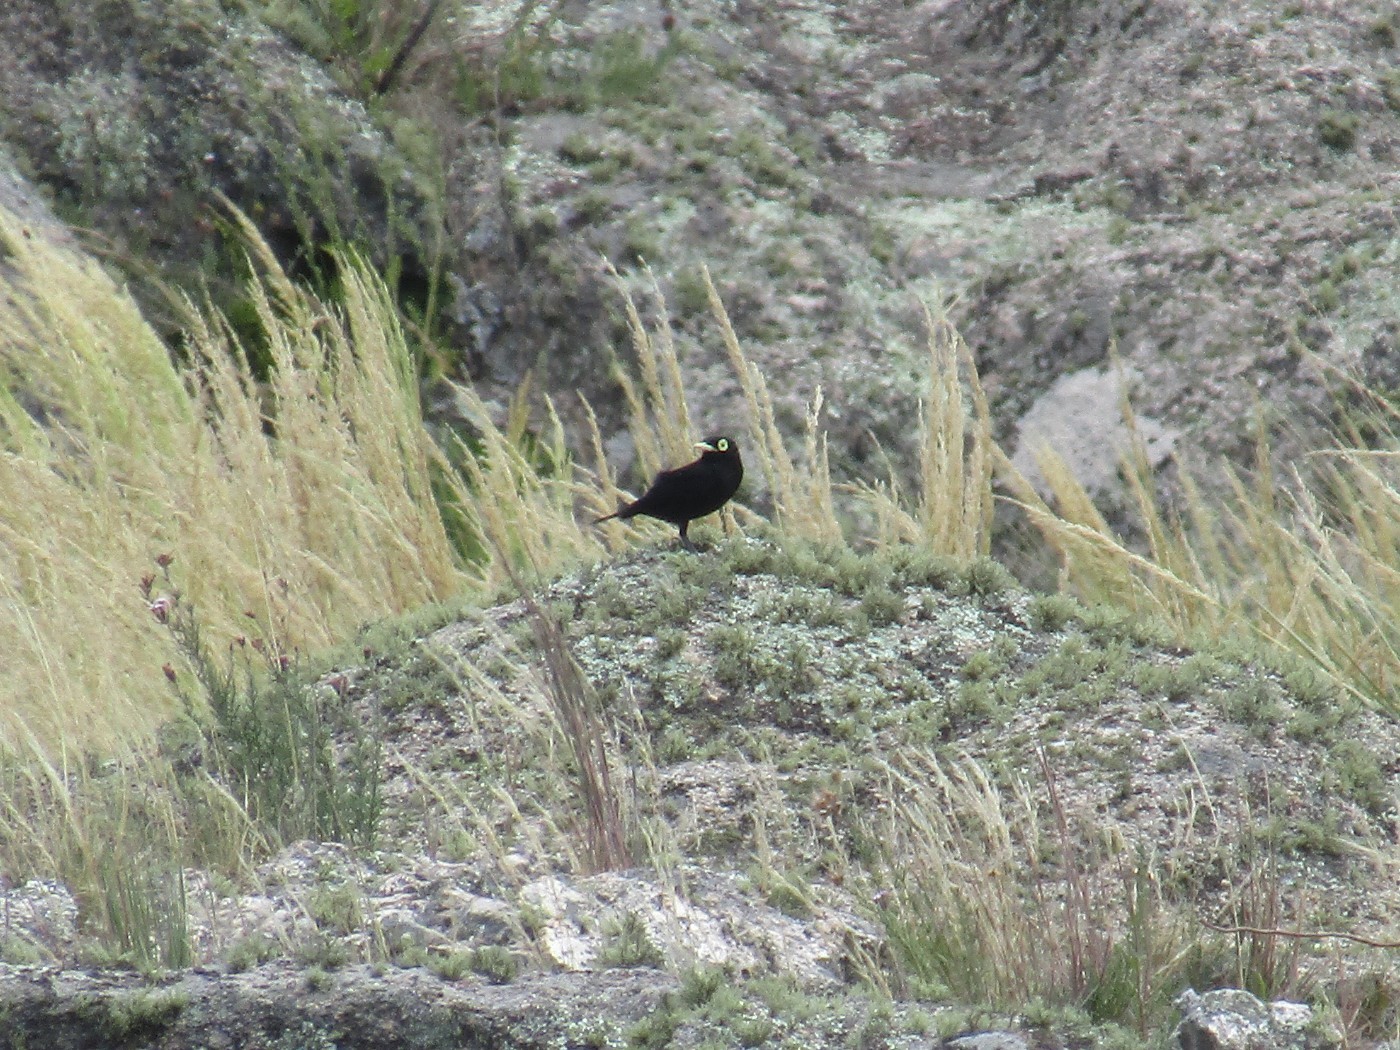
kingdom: Animalia
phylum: Chordata
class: Aves
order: Passeriformes
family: Tyrannidae
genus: Hymenops
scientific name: Hymenops perspicillatus
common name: Spectacled tyrant
